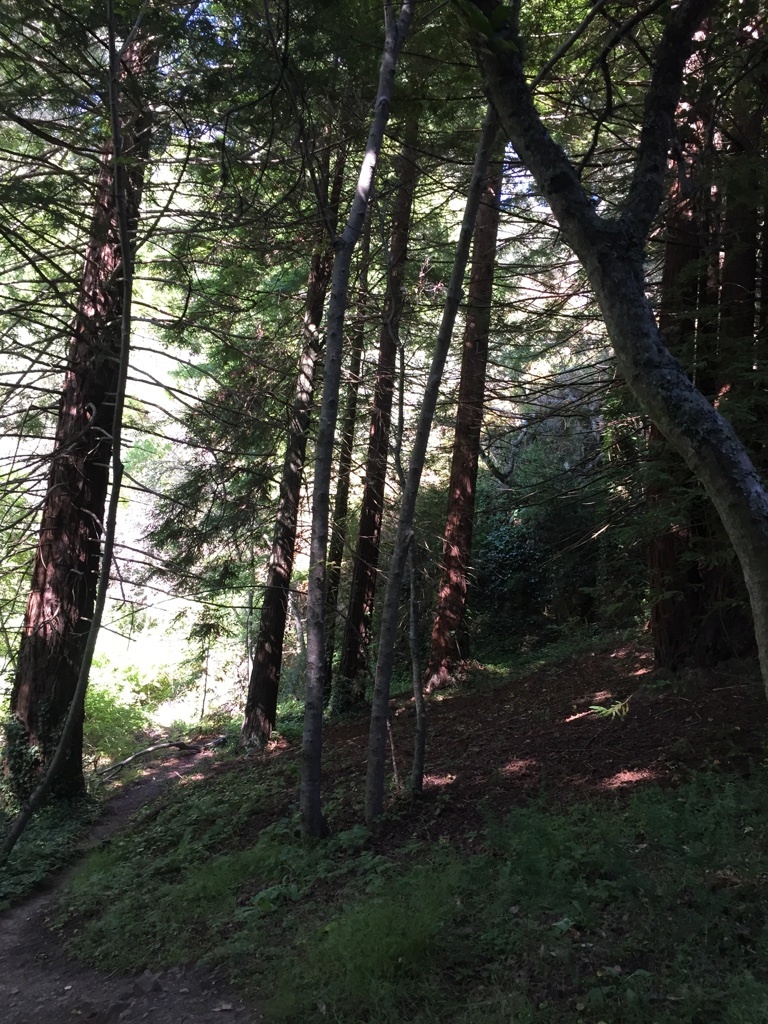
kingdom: Plantae
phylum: Tracheophyta
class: Pinopsida
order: Pinales
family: Cupressaceae
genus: Sequoia
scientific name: Sequoia sempervirens
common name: Coast redwood
